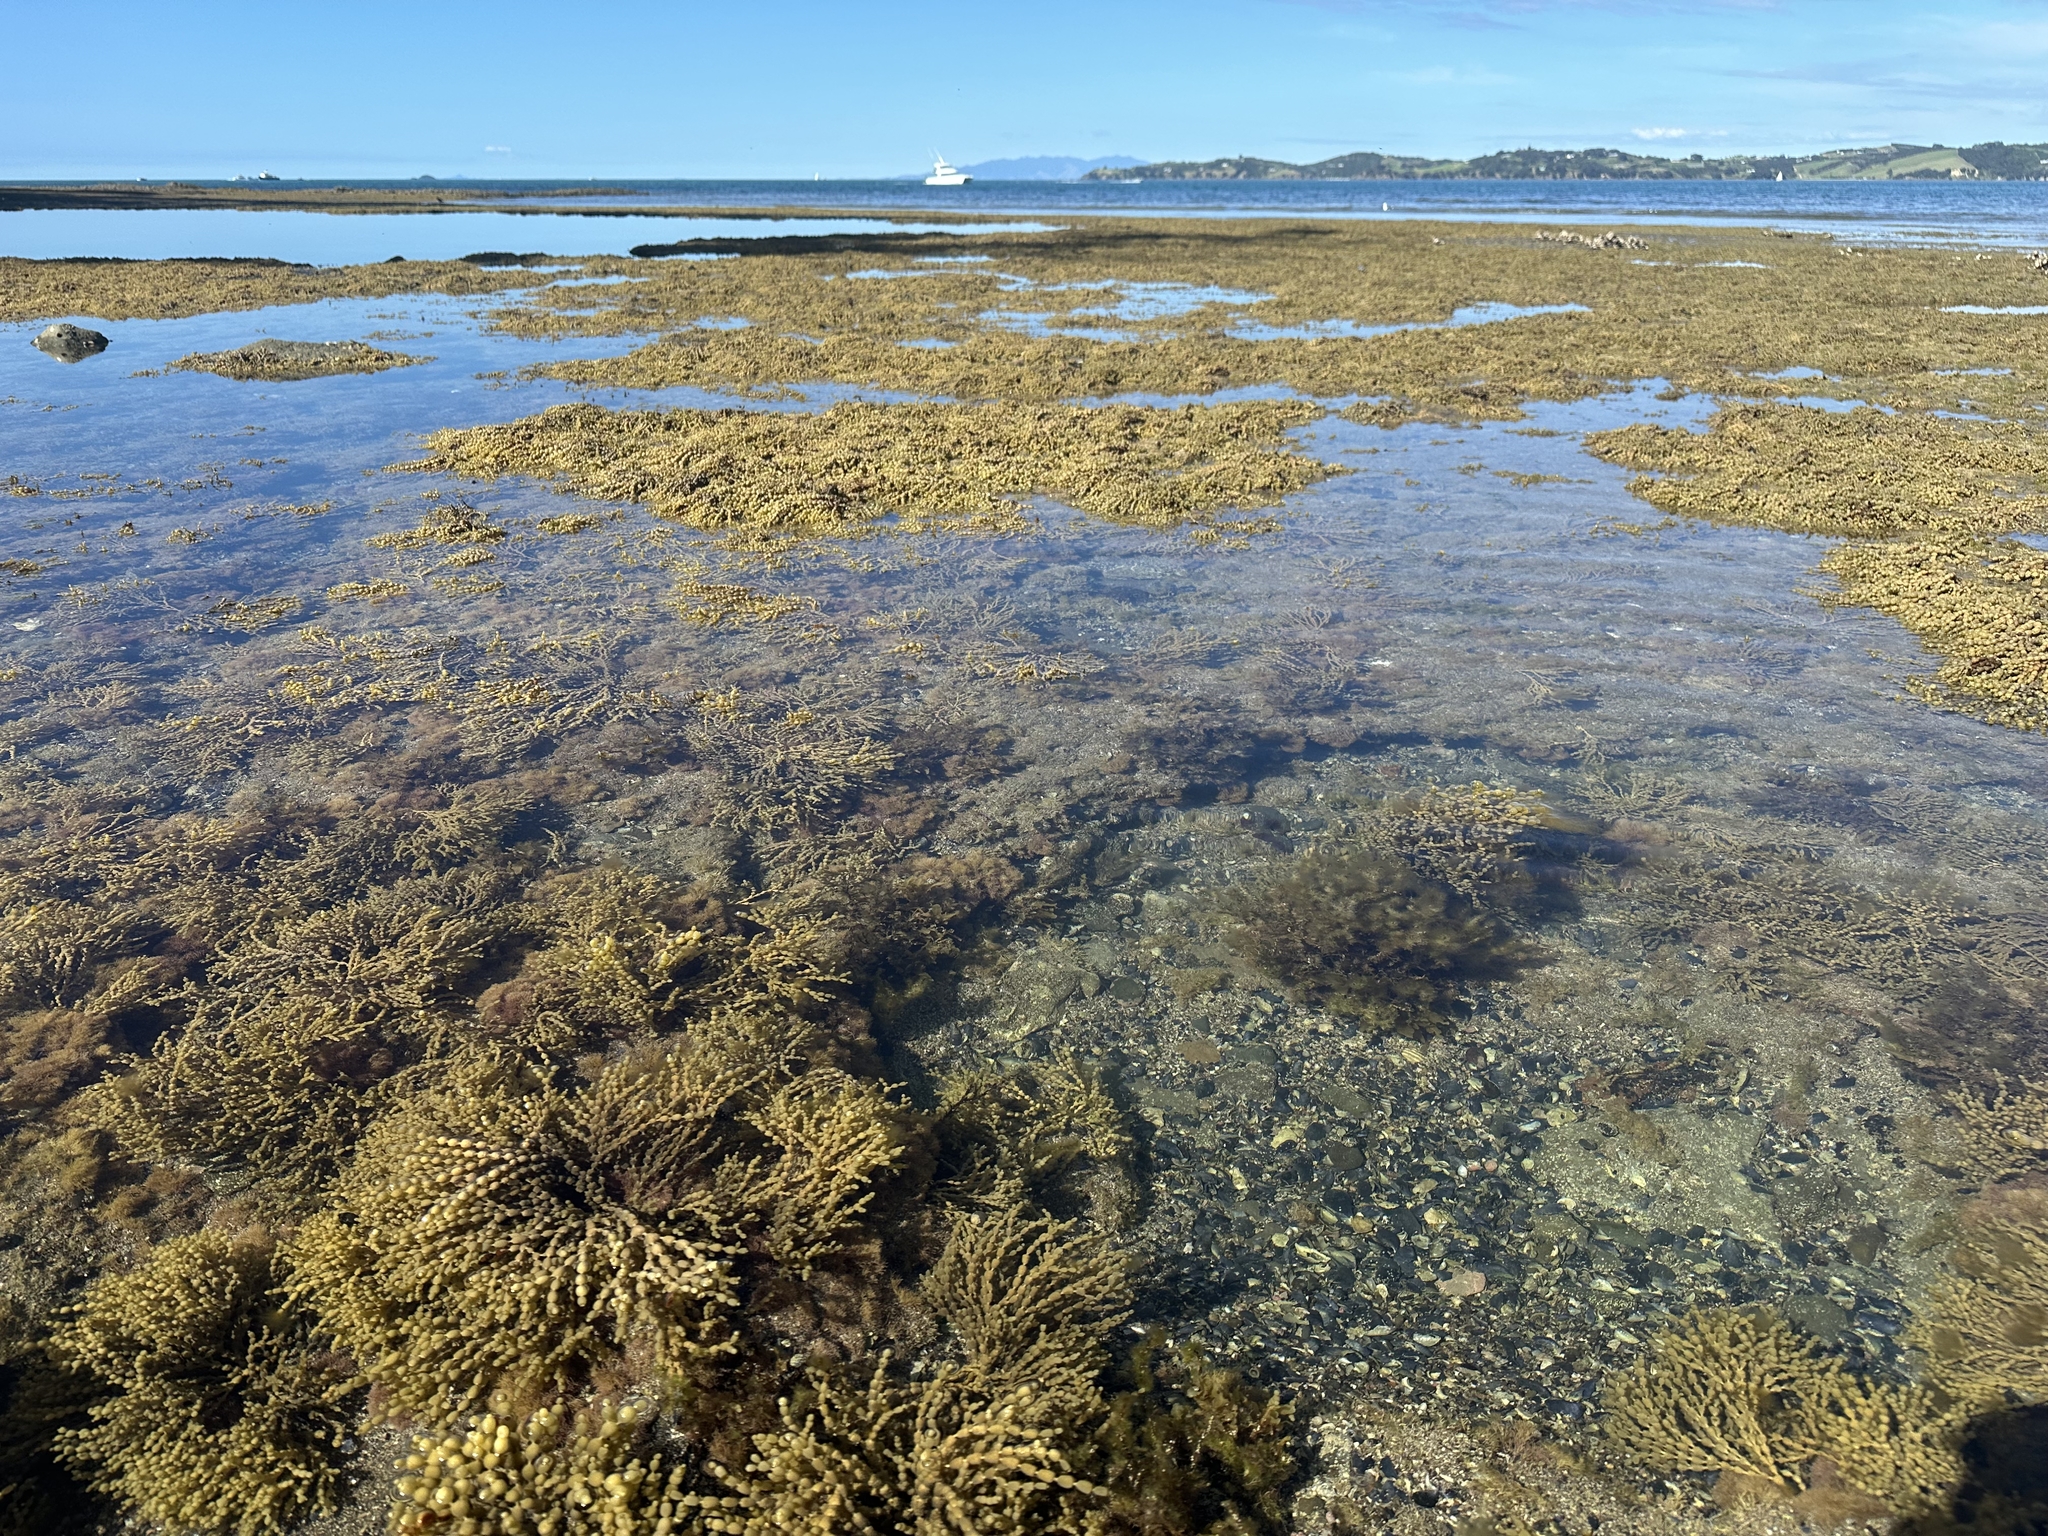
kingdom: Chromista
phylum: Ochrophyta
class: Phaeophyceae
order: Fucales
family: Hormosiraceae
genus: Hormosira
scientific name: Hormosira banksii
